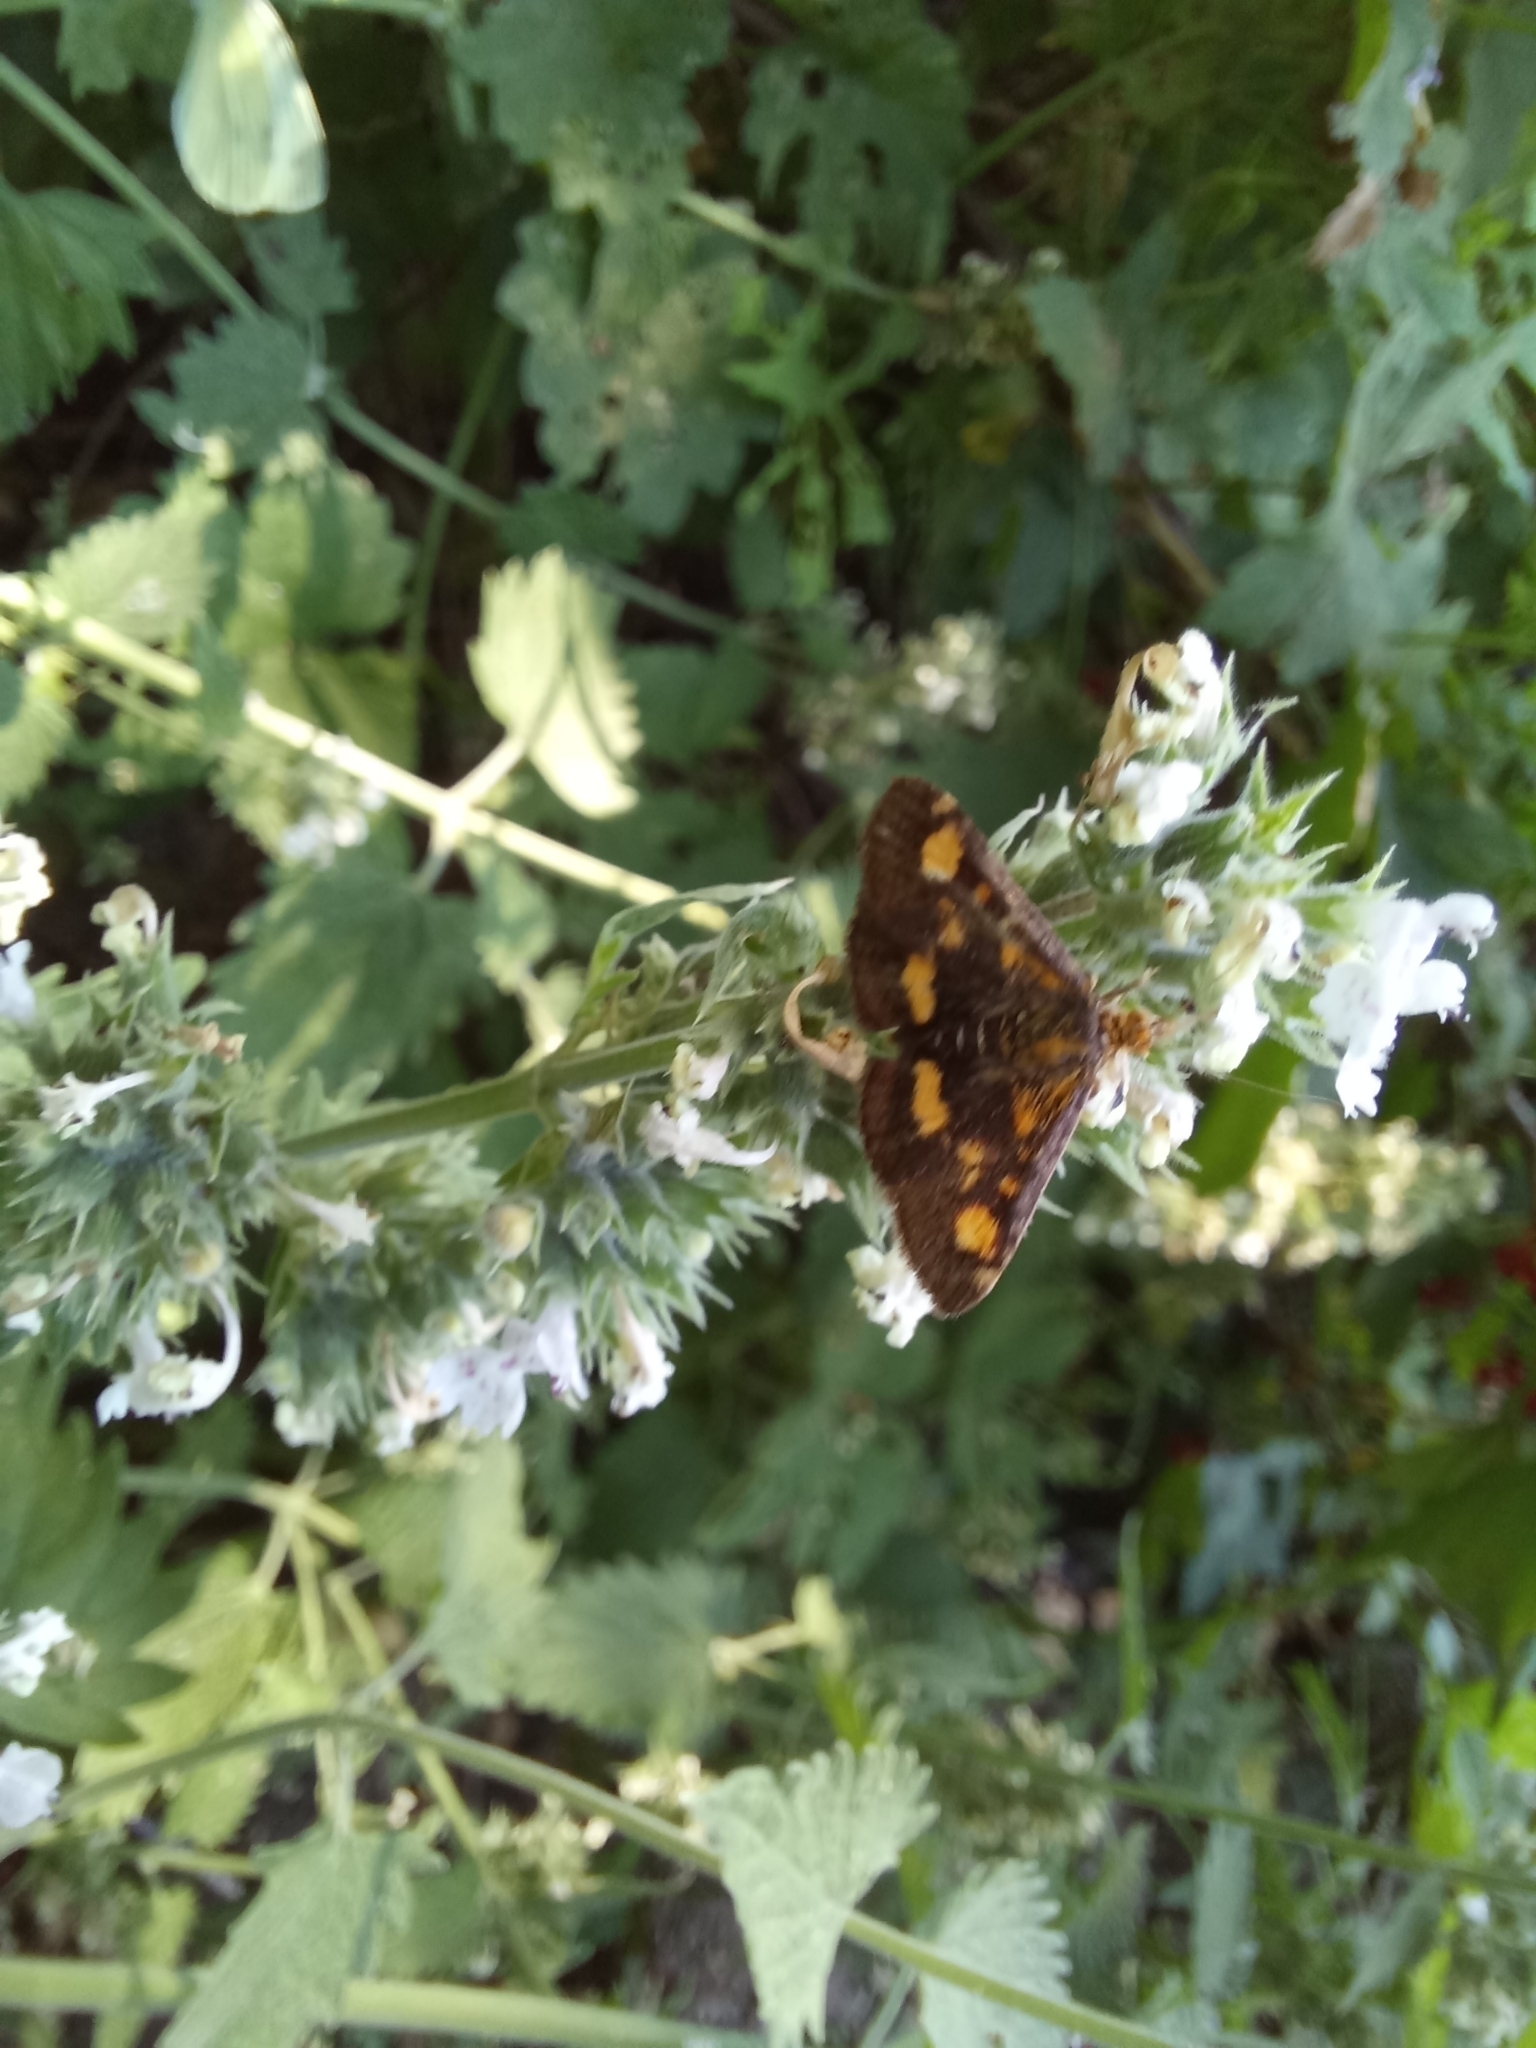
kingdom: Animalia
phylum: Arthropoda
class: Insecta
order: Lepidoptera
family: Crambidae
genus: Pyrausta
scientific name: Pyrausta aurata
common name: Small purple & gold
